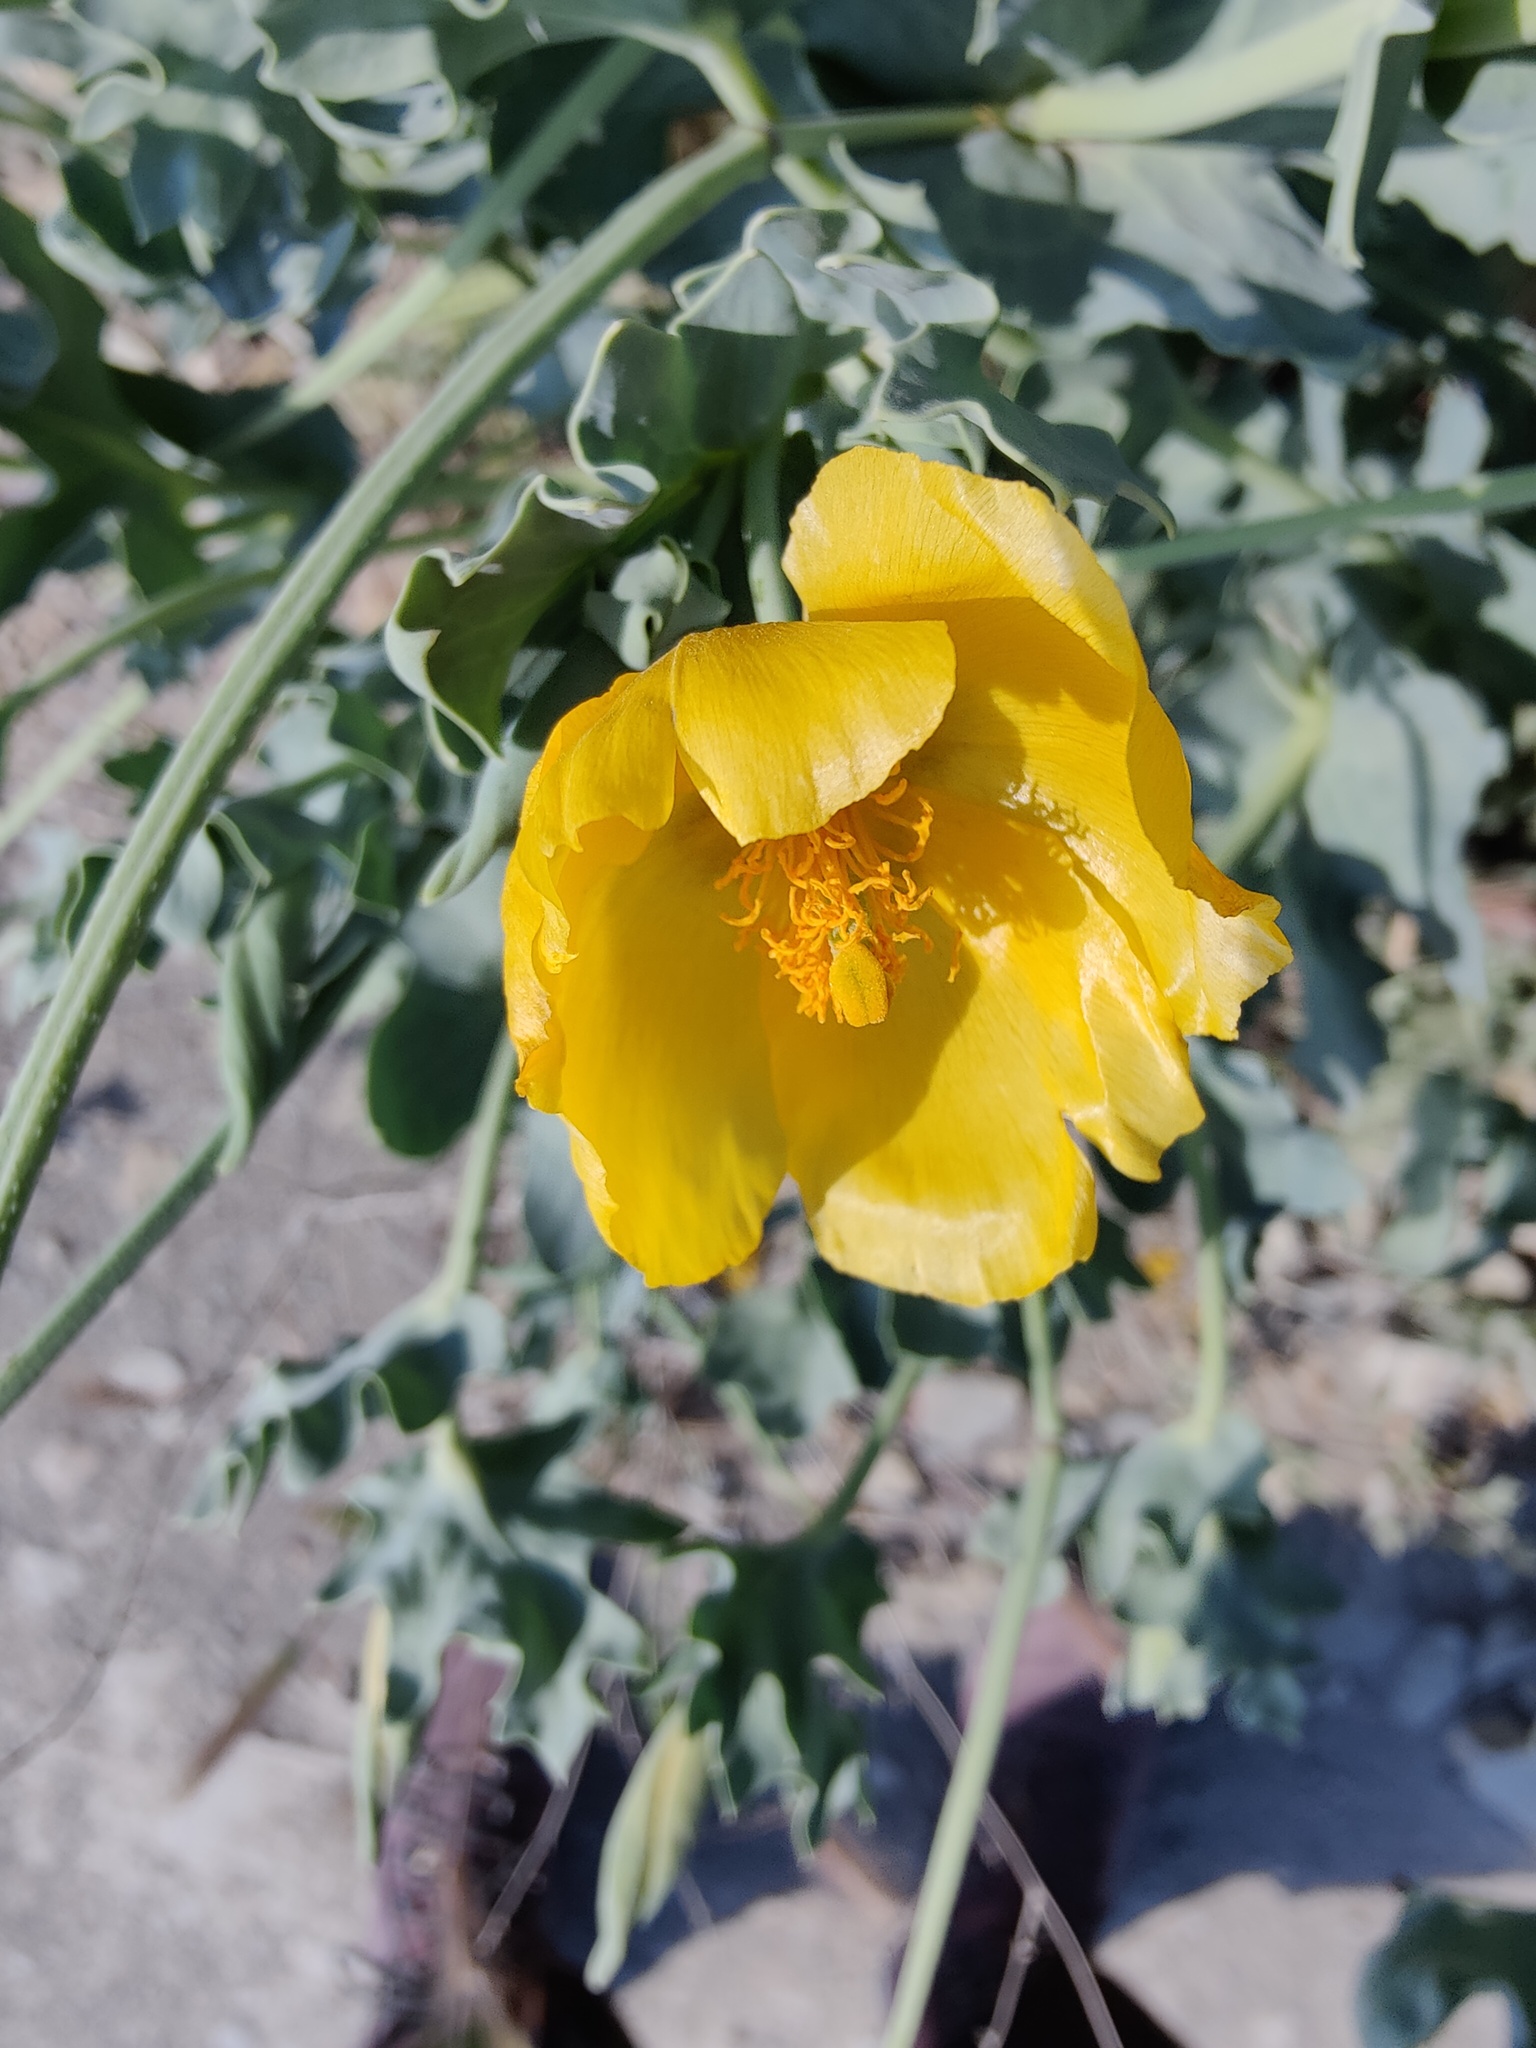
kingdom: Plantae
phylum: Tracheophyta
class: Magnoliopsida
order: Ranunculales
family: Papaveraceae
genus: Glaucium
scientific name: Glaucium flavum
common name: Yellow horned-poppy
